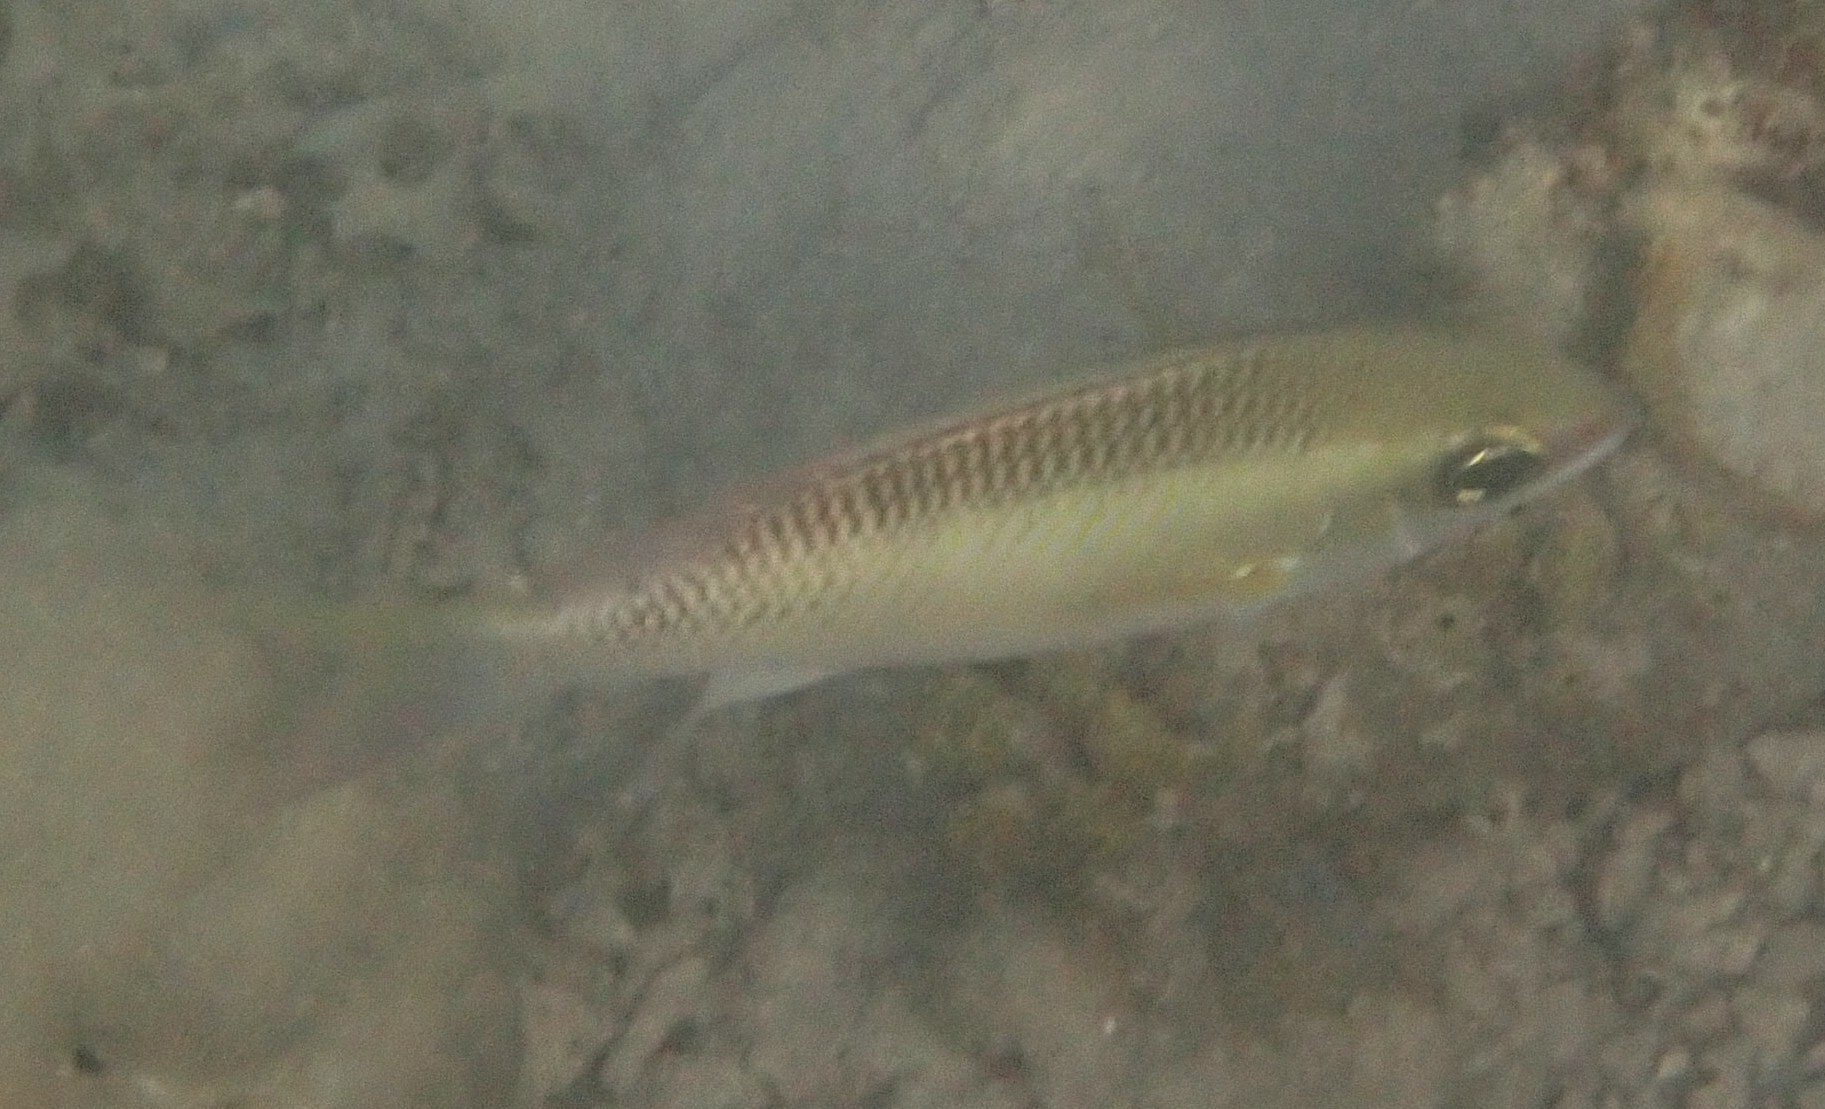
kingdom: Animalia
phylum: Chordata
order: Perciformes
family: Nemipteridae
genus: Scolopsis
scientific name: Scolopsis margaritifera
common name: Pearly monocle bream
